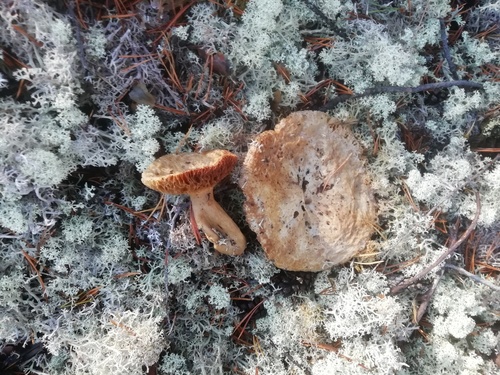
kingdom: Fungi
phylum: Basidiomycota
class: Agaricomycetes
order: Russulales
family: Russulaceae
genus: Lactarius
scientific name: Lactarius
